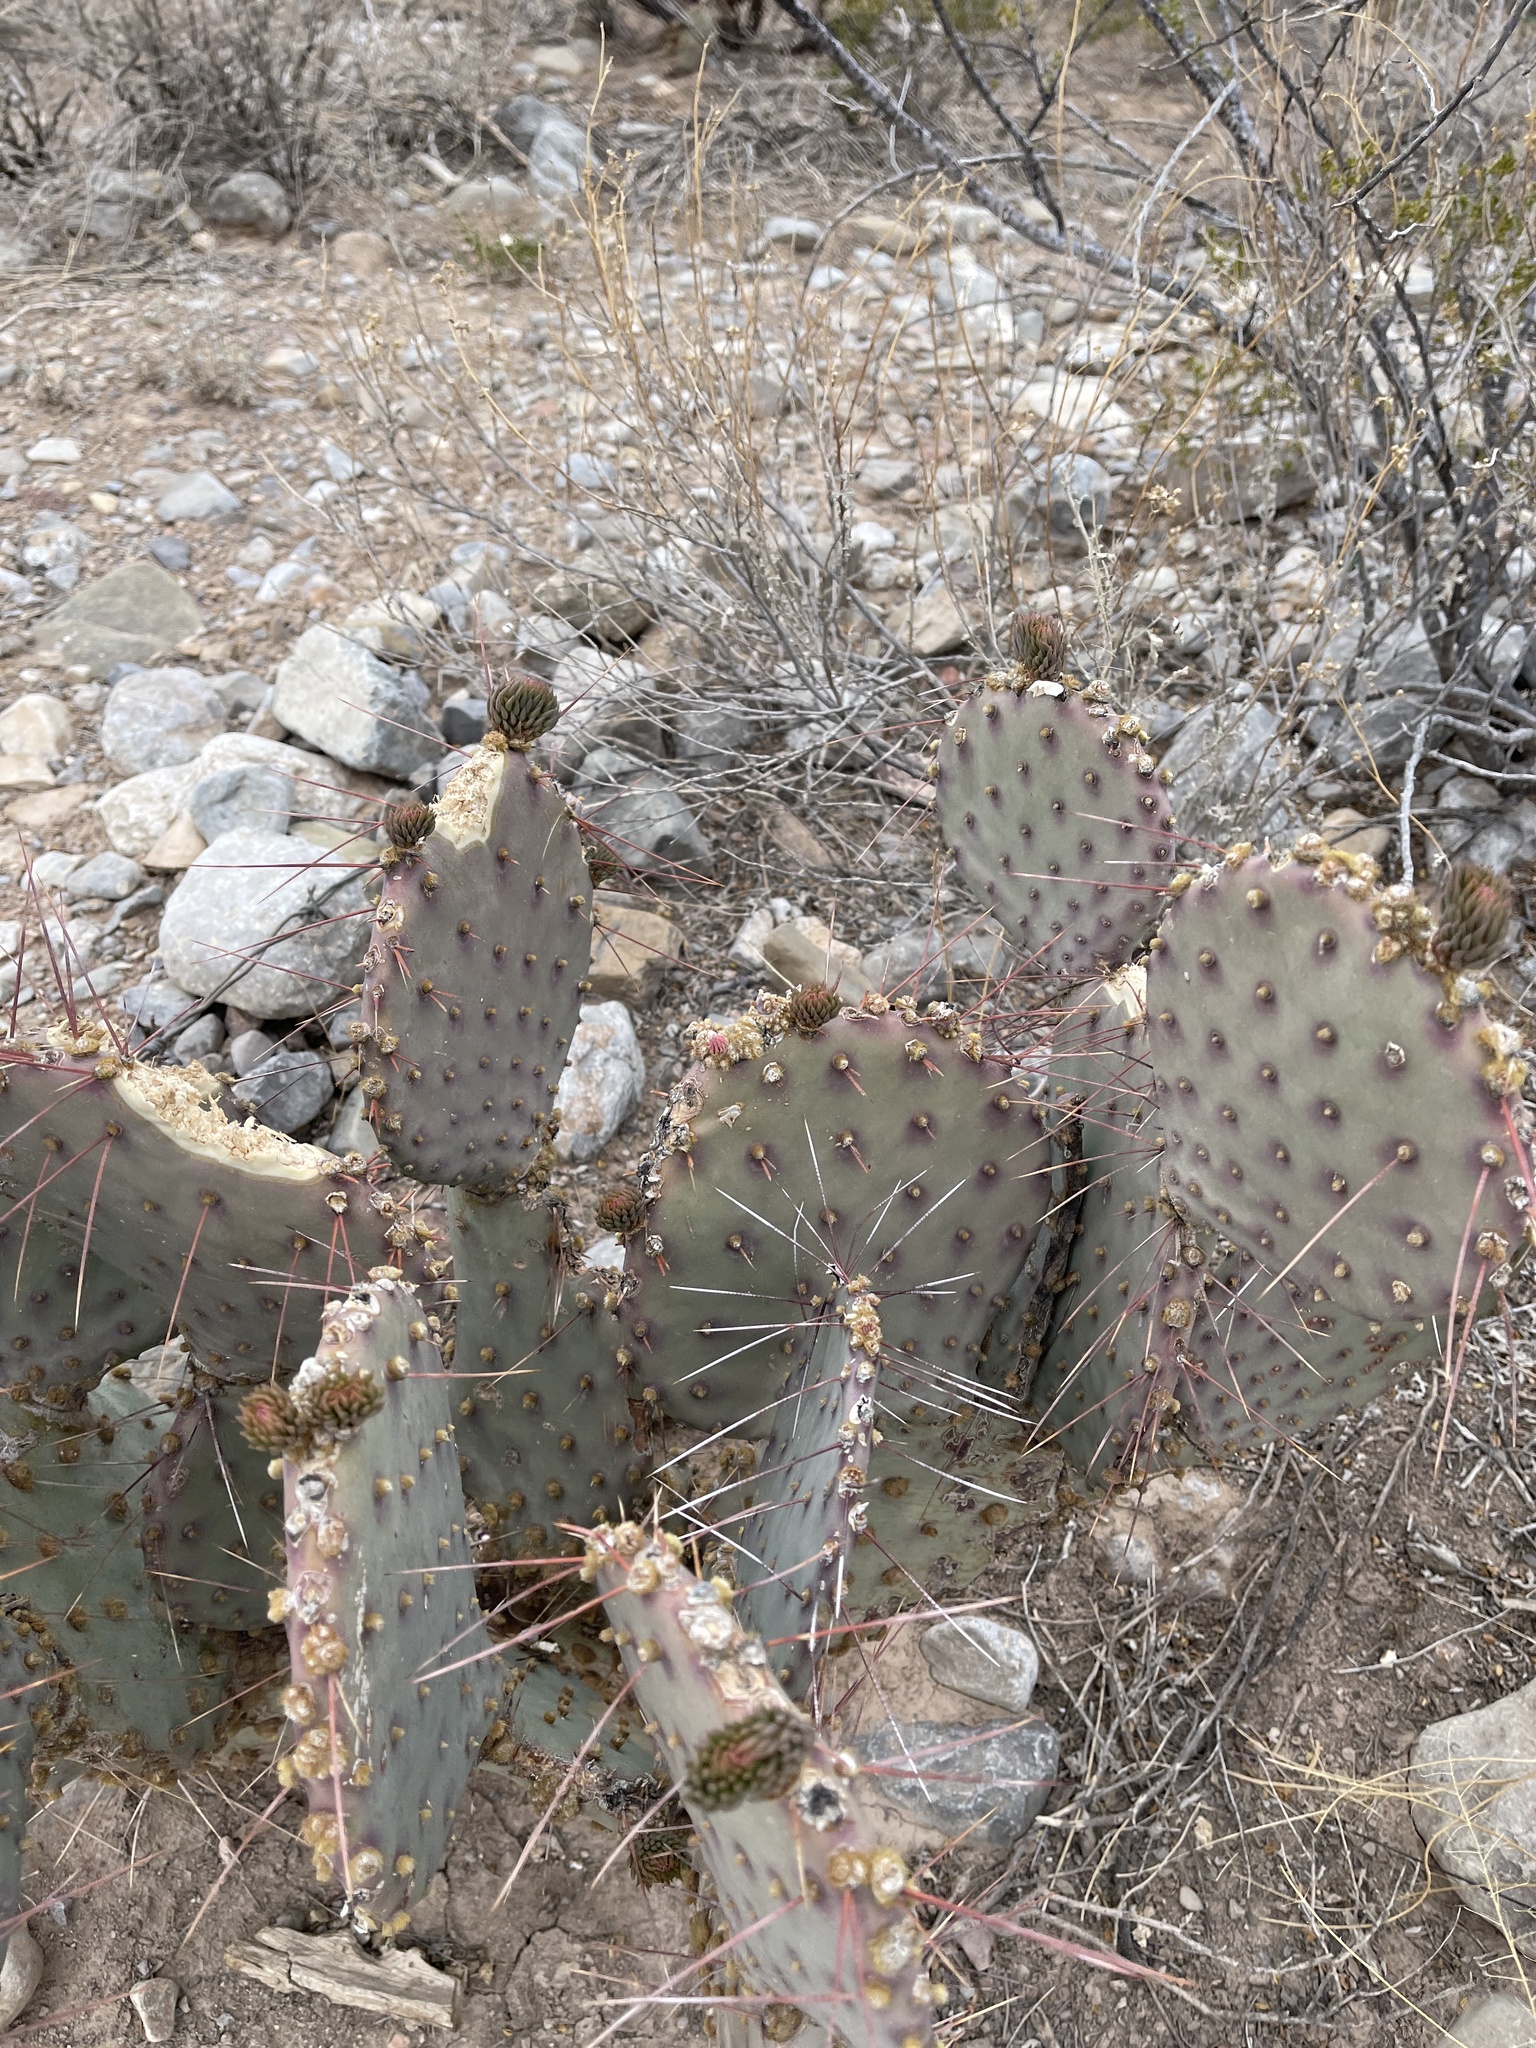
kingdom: Plantae
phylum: Tracheophyta
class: Magnoliopsida
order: Caryophyllales
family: Cactaceae
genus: Opuntia
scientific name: Opuntia macrocentra
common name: Purple prickly-pear
